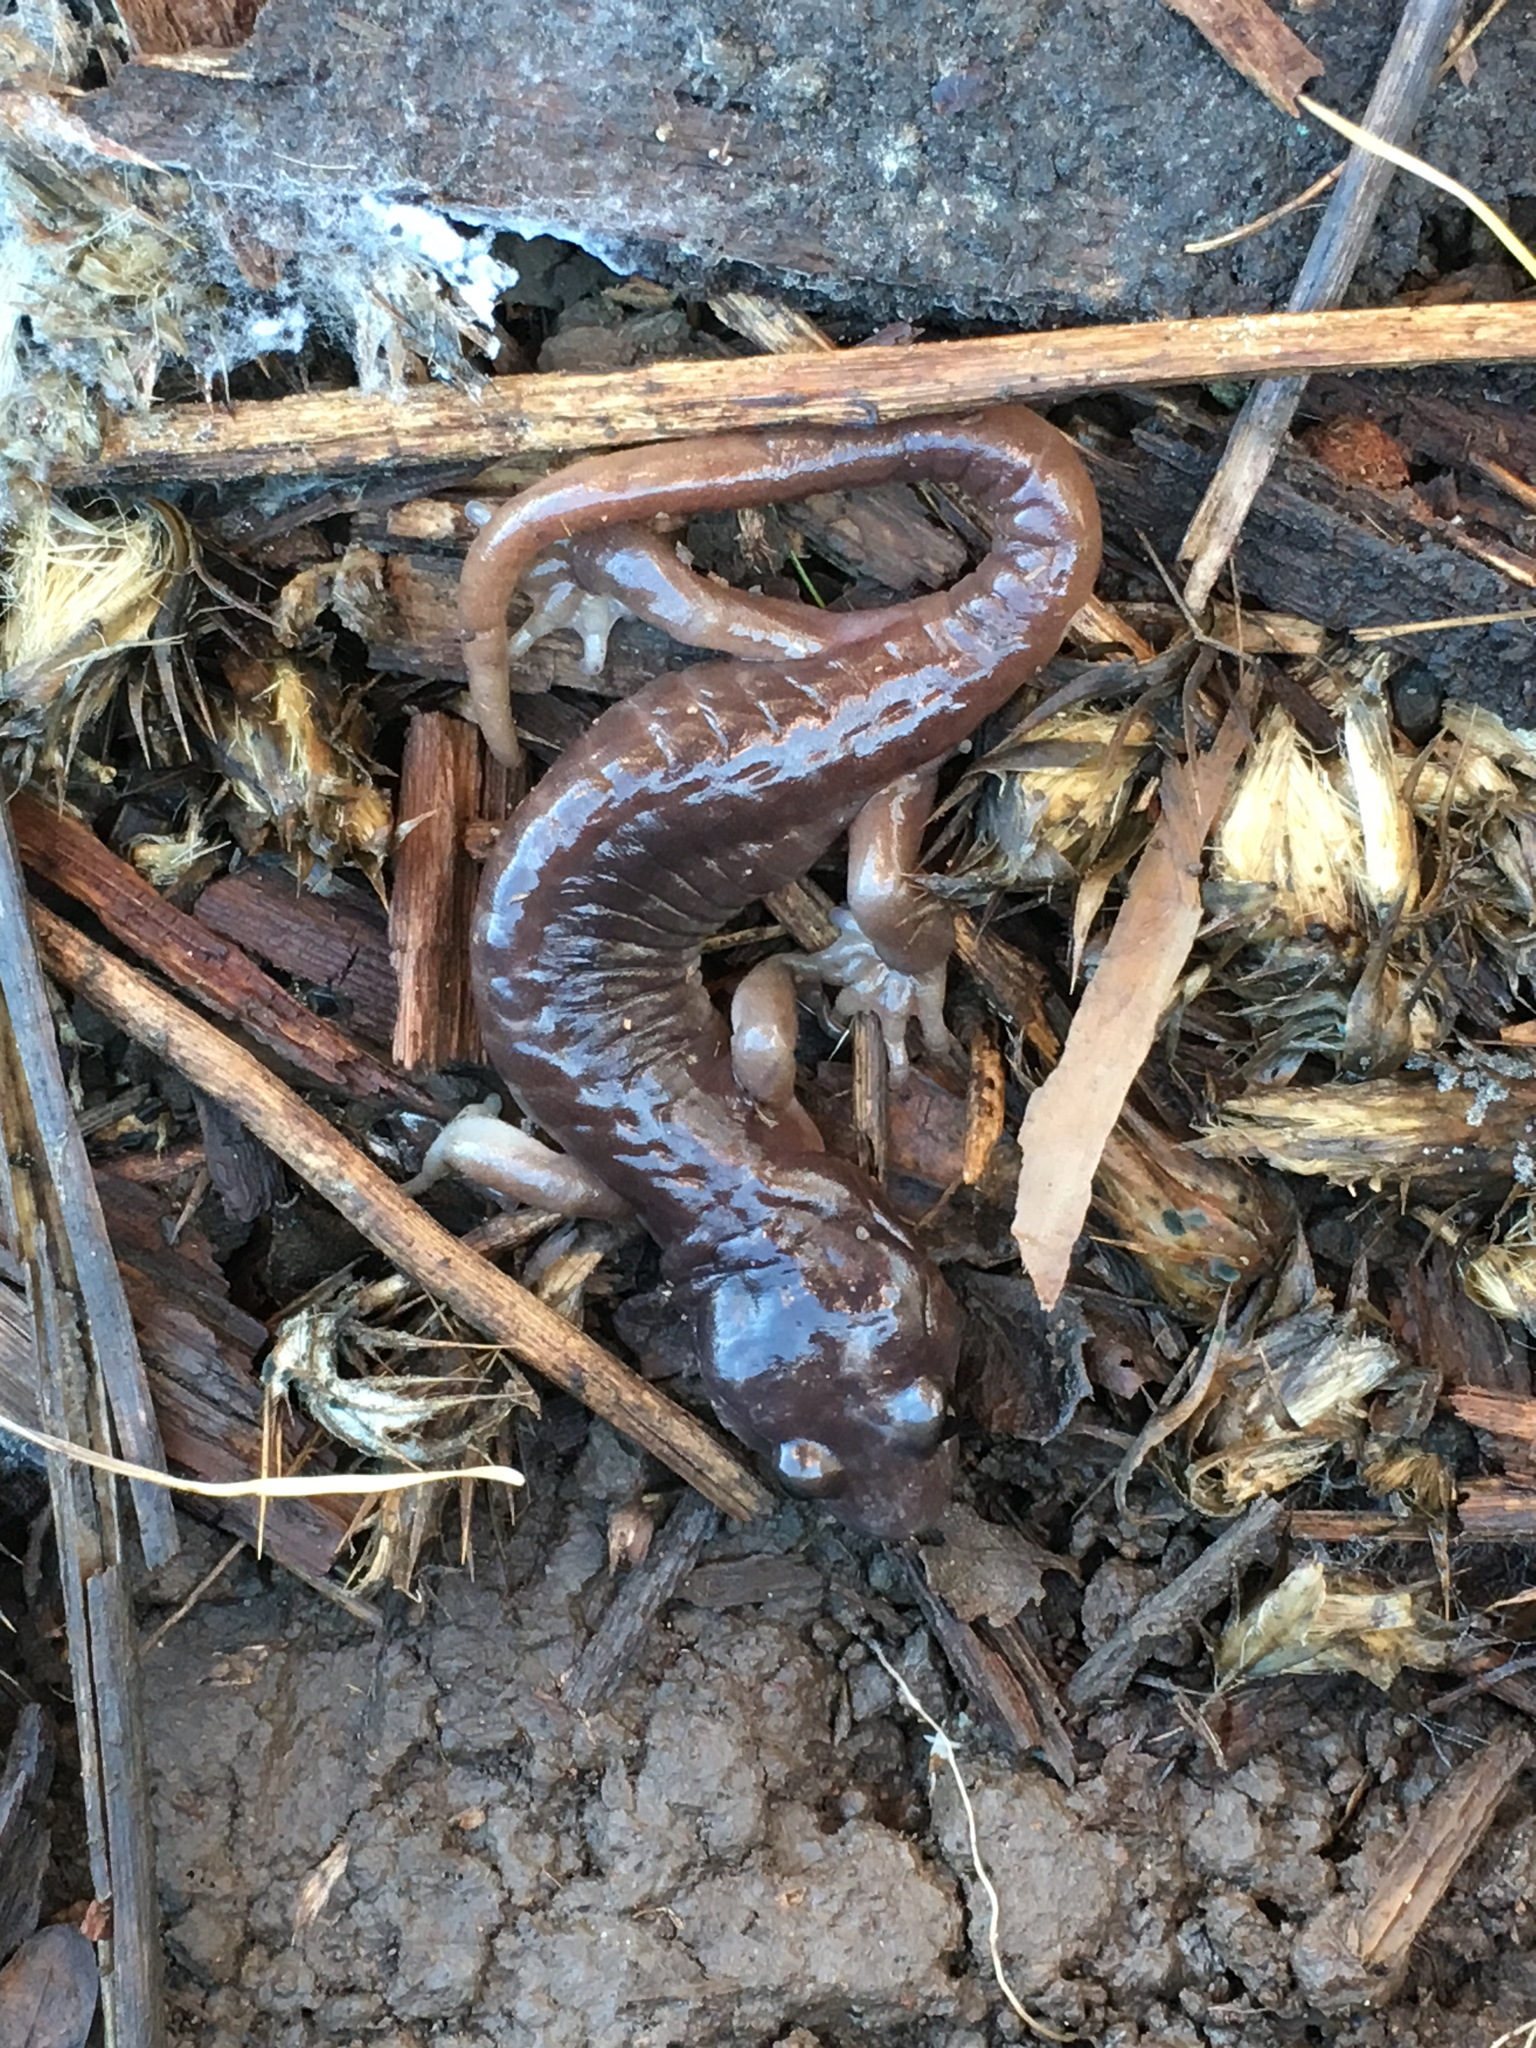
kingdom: Animalia
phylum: Chordata
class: Amphibia
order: Caudata
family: Plethodontidae
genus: Aneides
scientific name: Aneides lugubris
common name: Arboreal salamander
